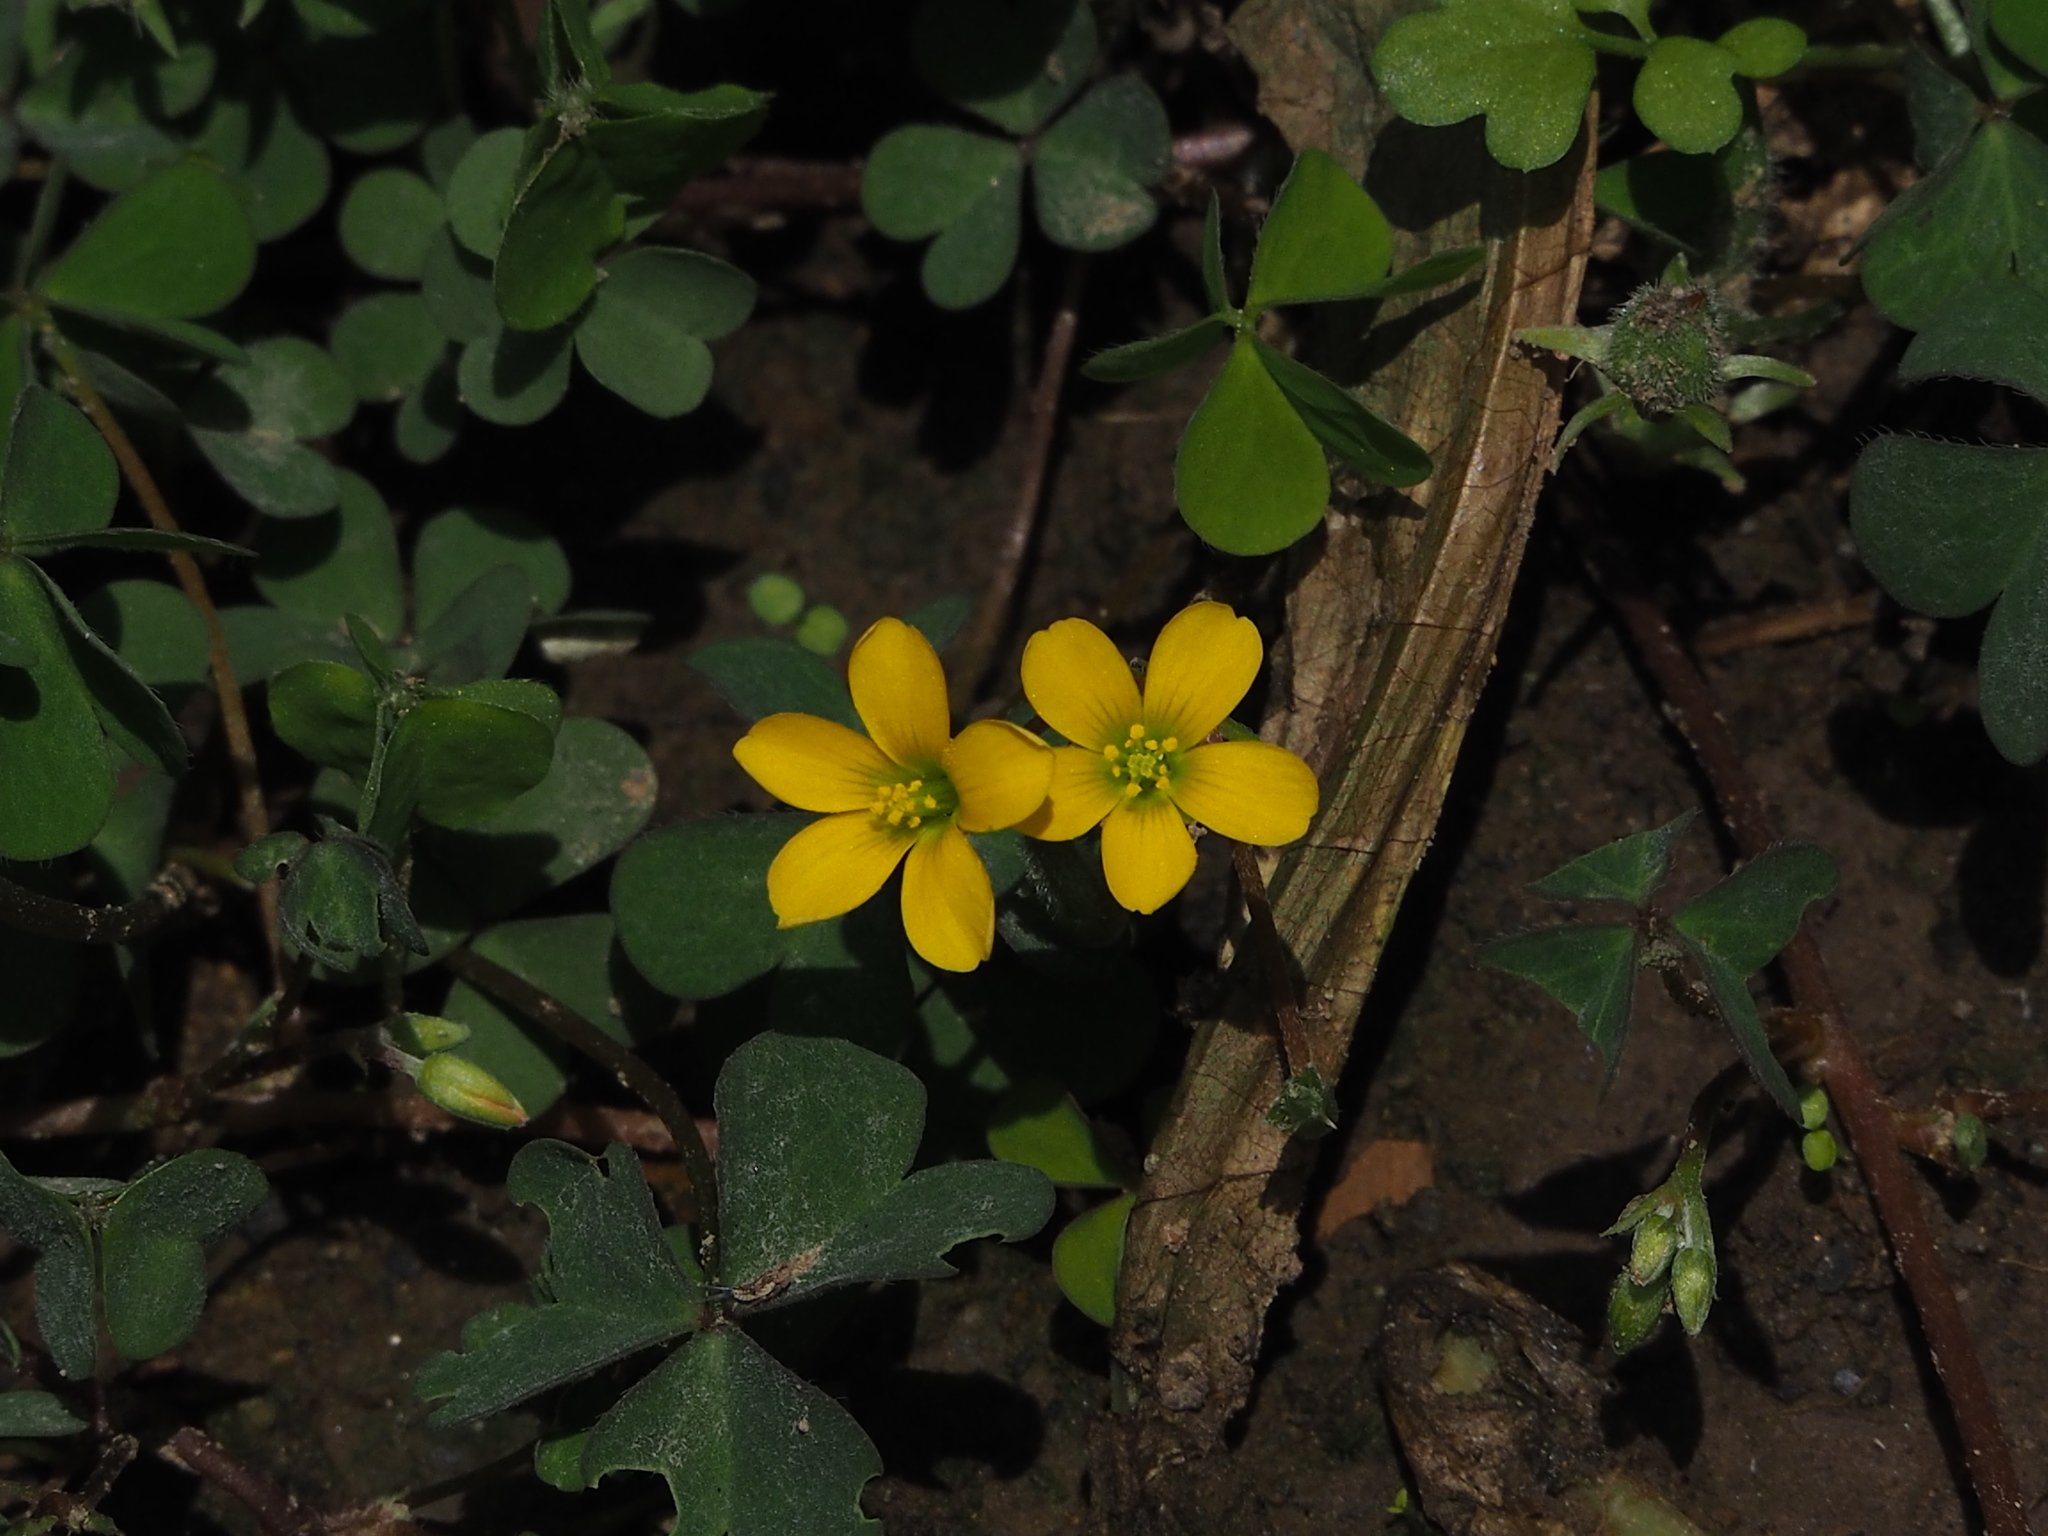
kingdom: Plantae
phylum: Tracheophyta
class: Magnoliopsida
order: Oxalidales
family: Oxalidaceae
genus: Oxalis
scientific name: Oxalis corniculata
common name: Procumbent yellow-sorrel
